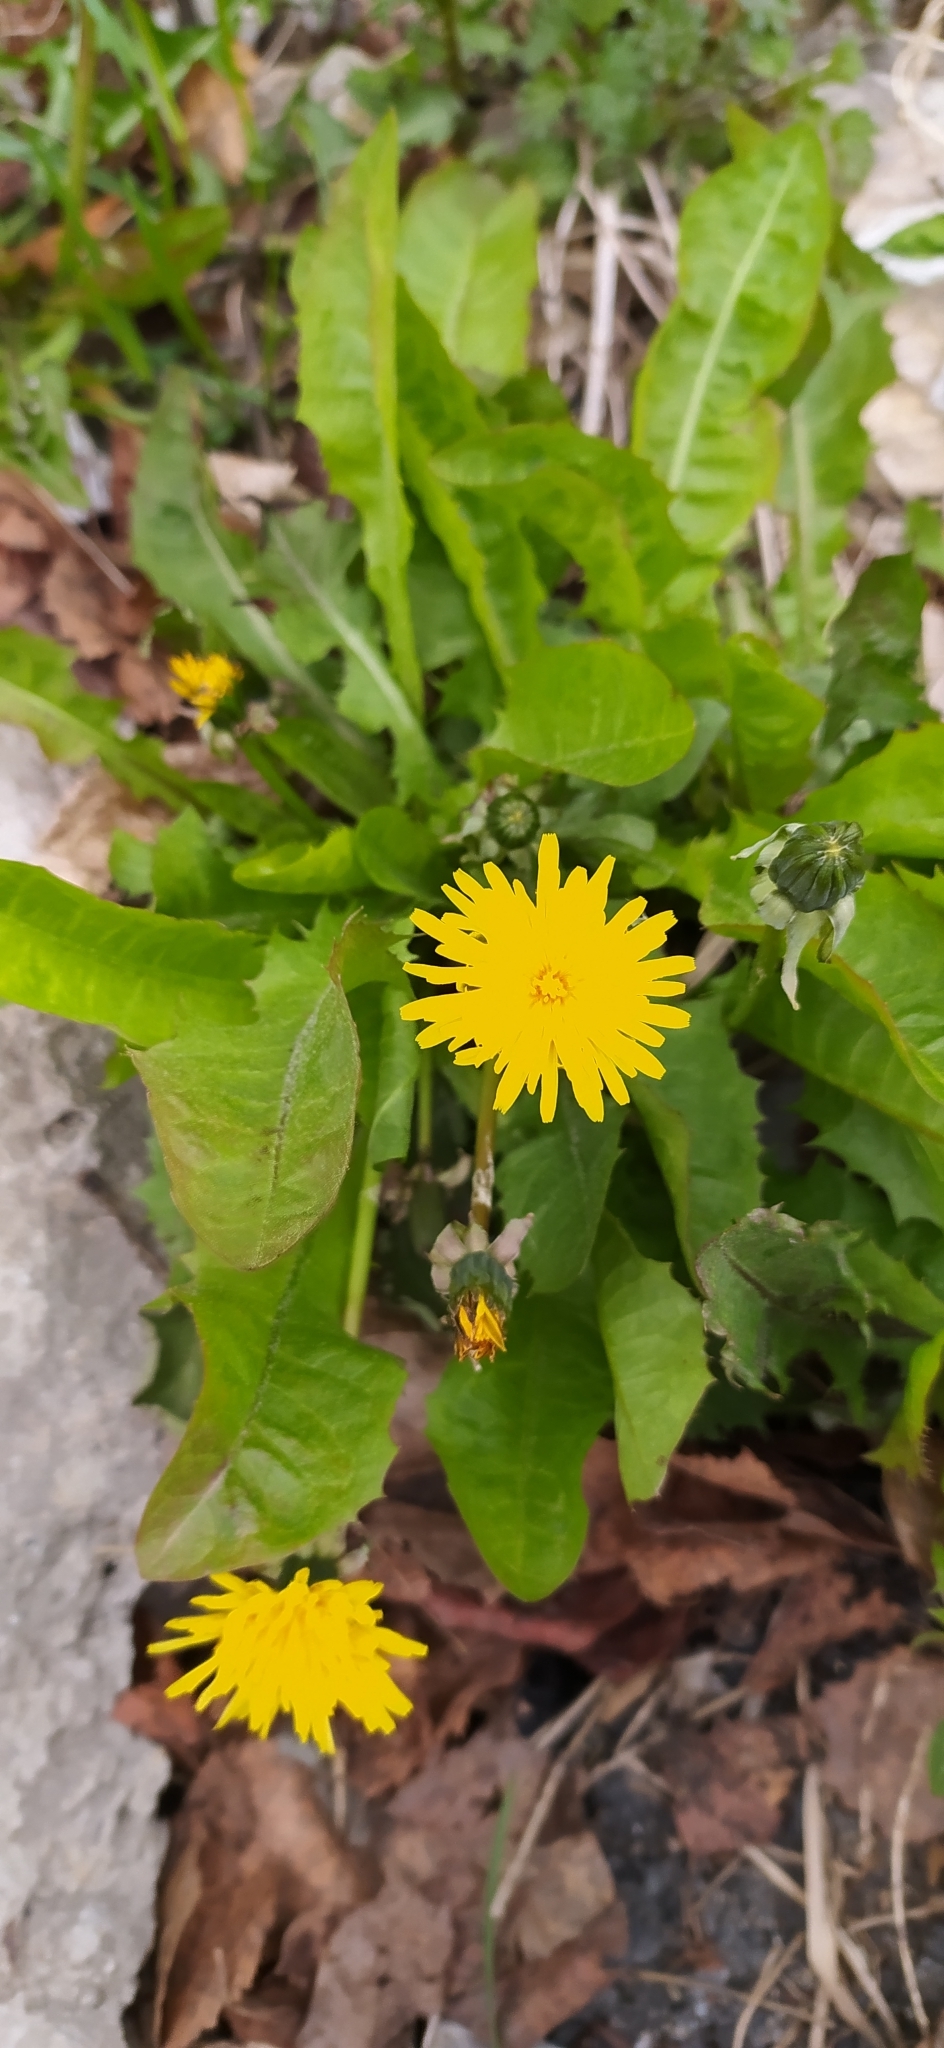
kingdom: Plantae
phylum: Tracheophyta
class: Magnoliopsida
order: Asterales
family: Asteraceae
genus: Taraxacum
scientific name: Taraxacum officinale
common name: Common dandelion
